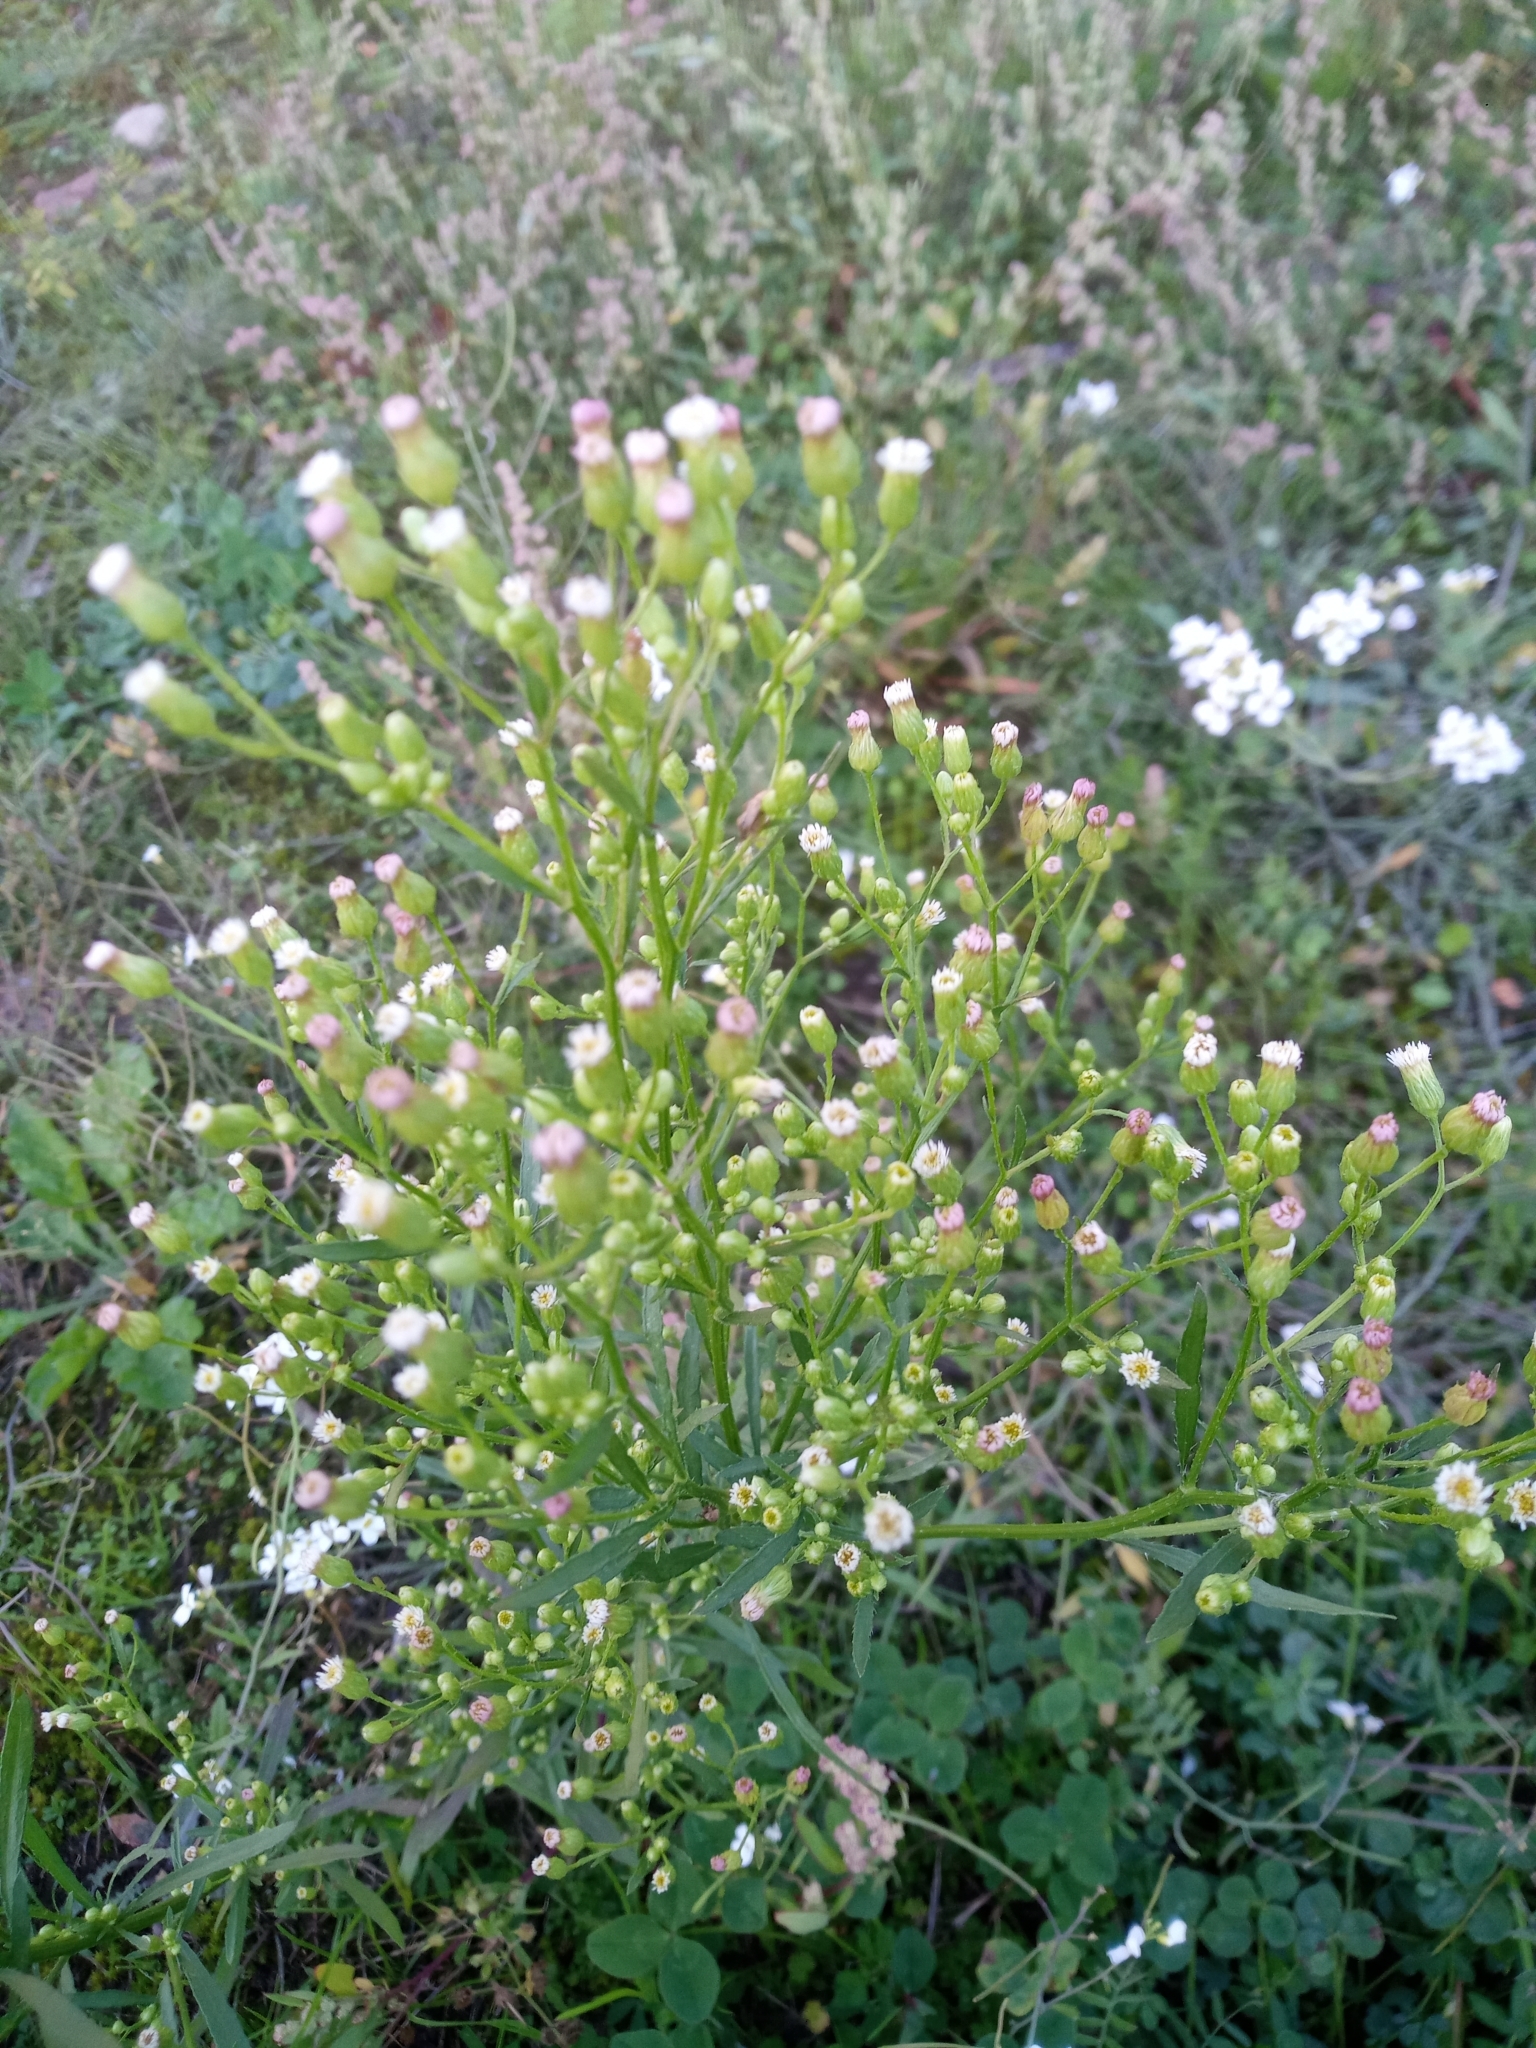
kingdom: Plantae
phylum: Tracheophyta
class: Magnoliopsida
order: Asterales
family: Asteraceae
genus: Erigeron
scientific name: Erigeron canadensis
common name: Canadian fleabane
